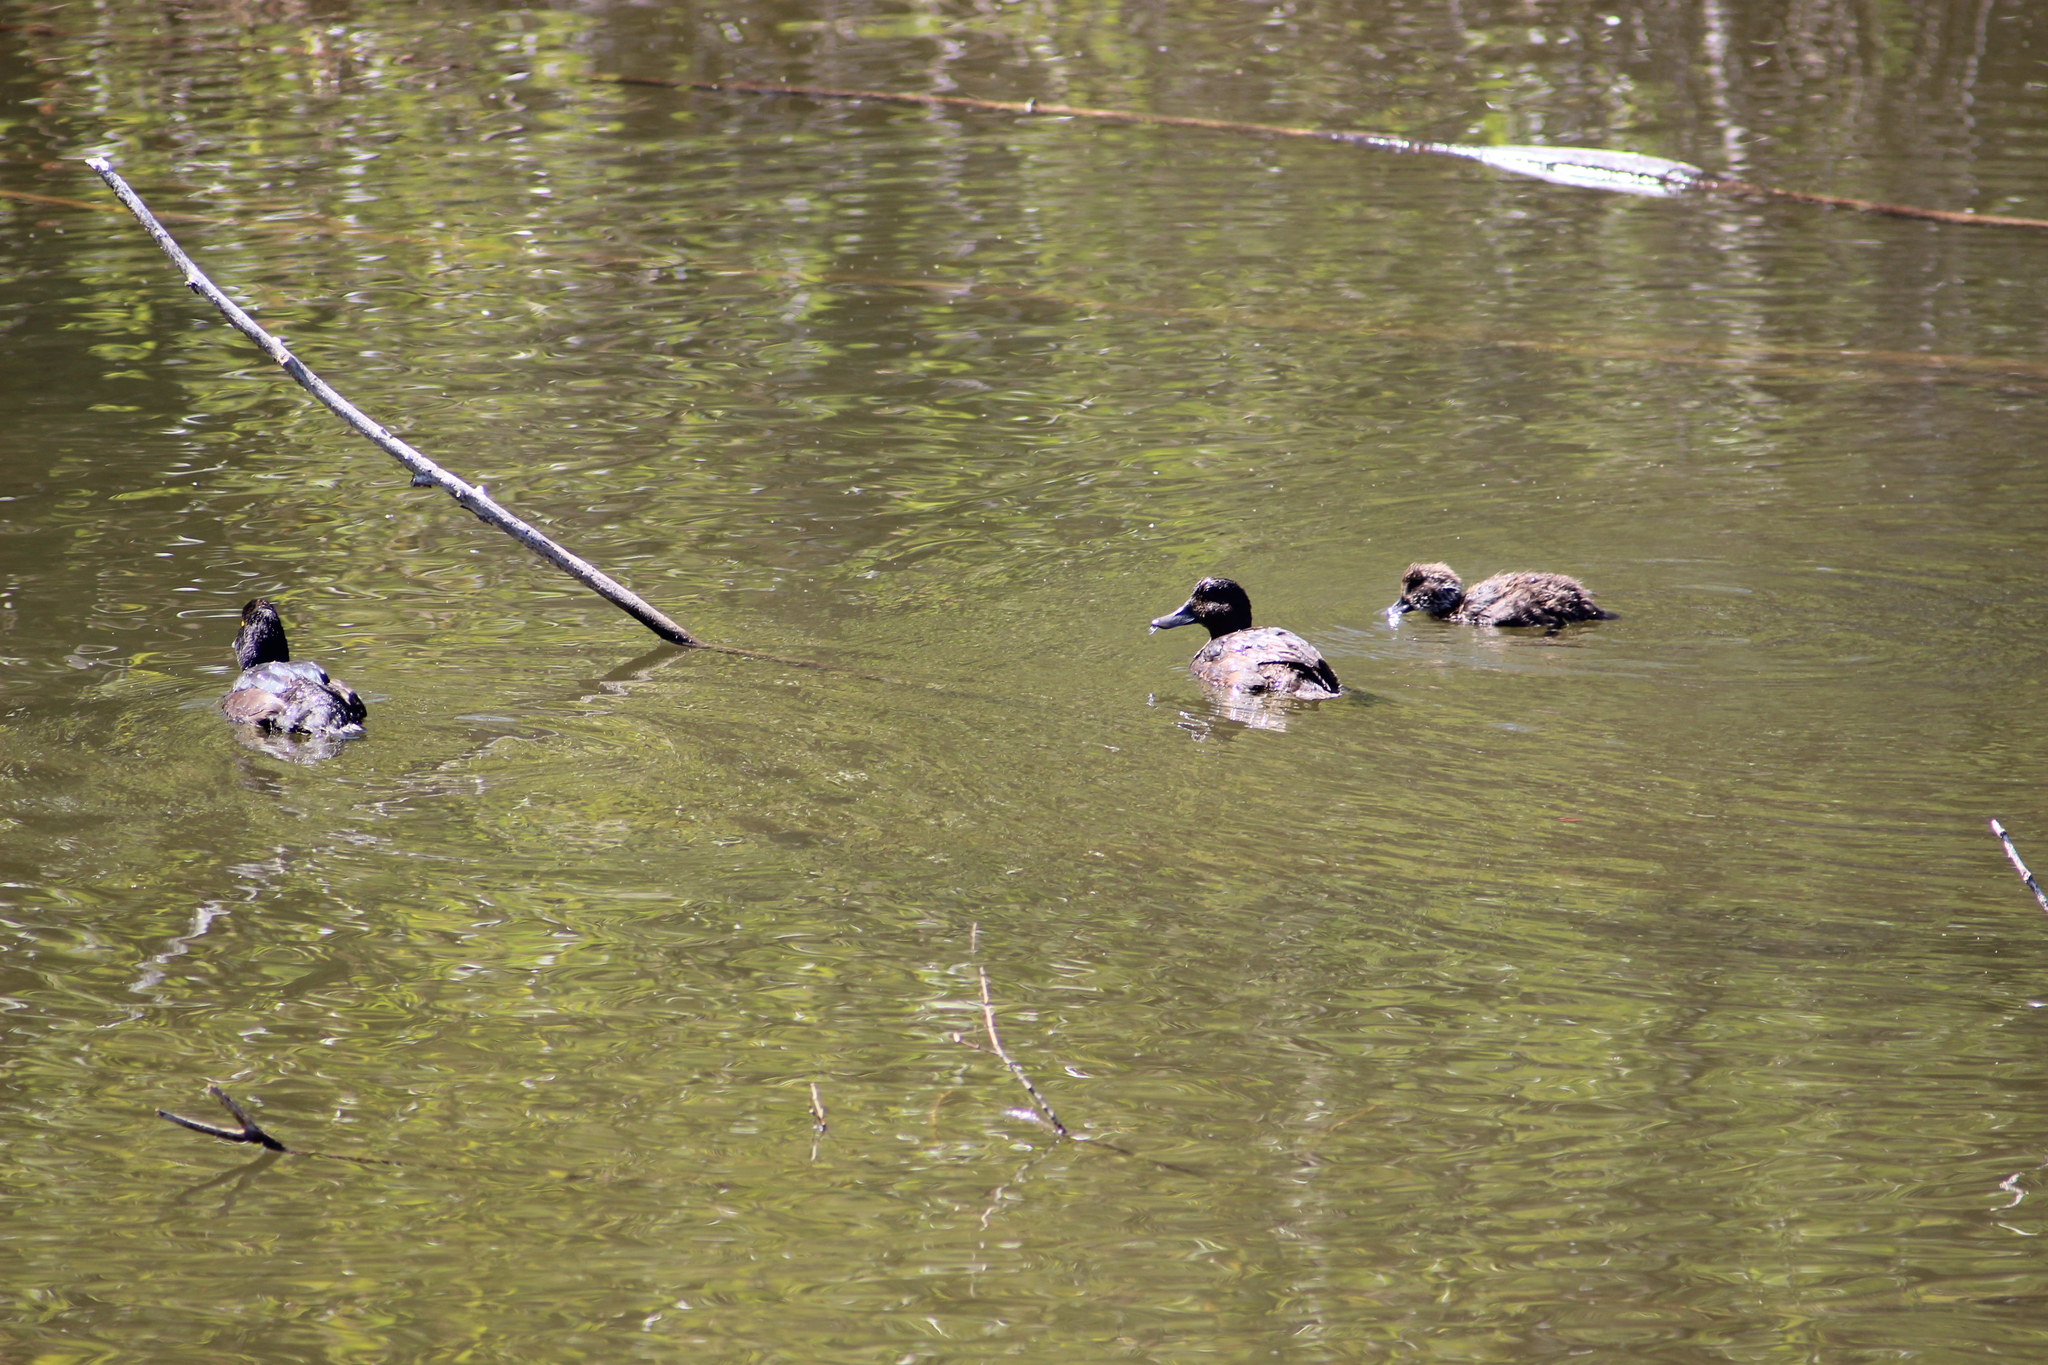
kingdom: Animalia
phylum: Chordata
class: Aves
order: Anseriformes
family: Anatidae
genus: Aythya
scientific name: Aythya novaeseelandiae
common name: New zealand scaup
